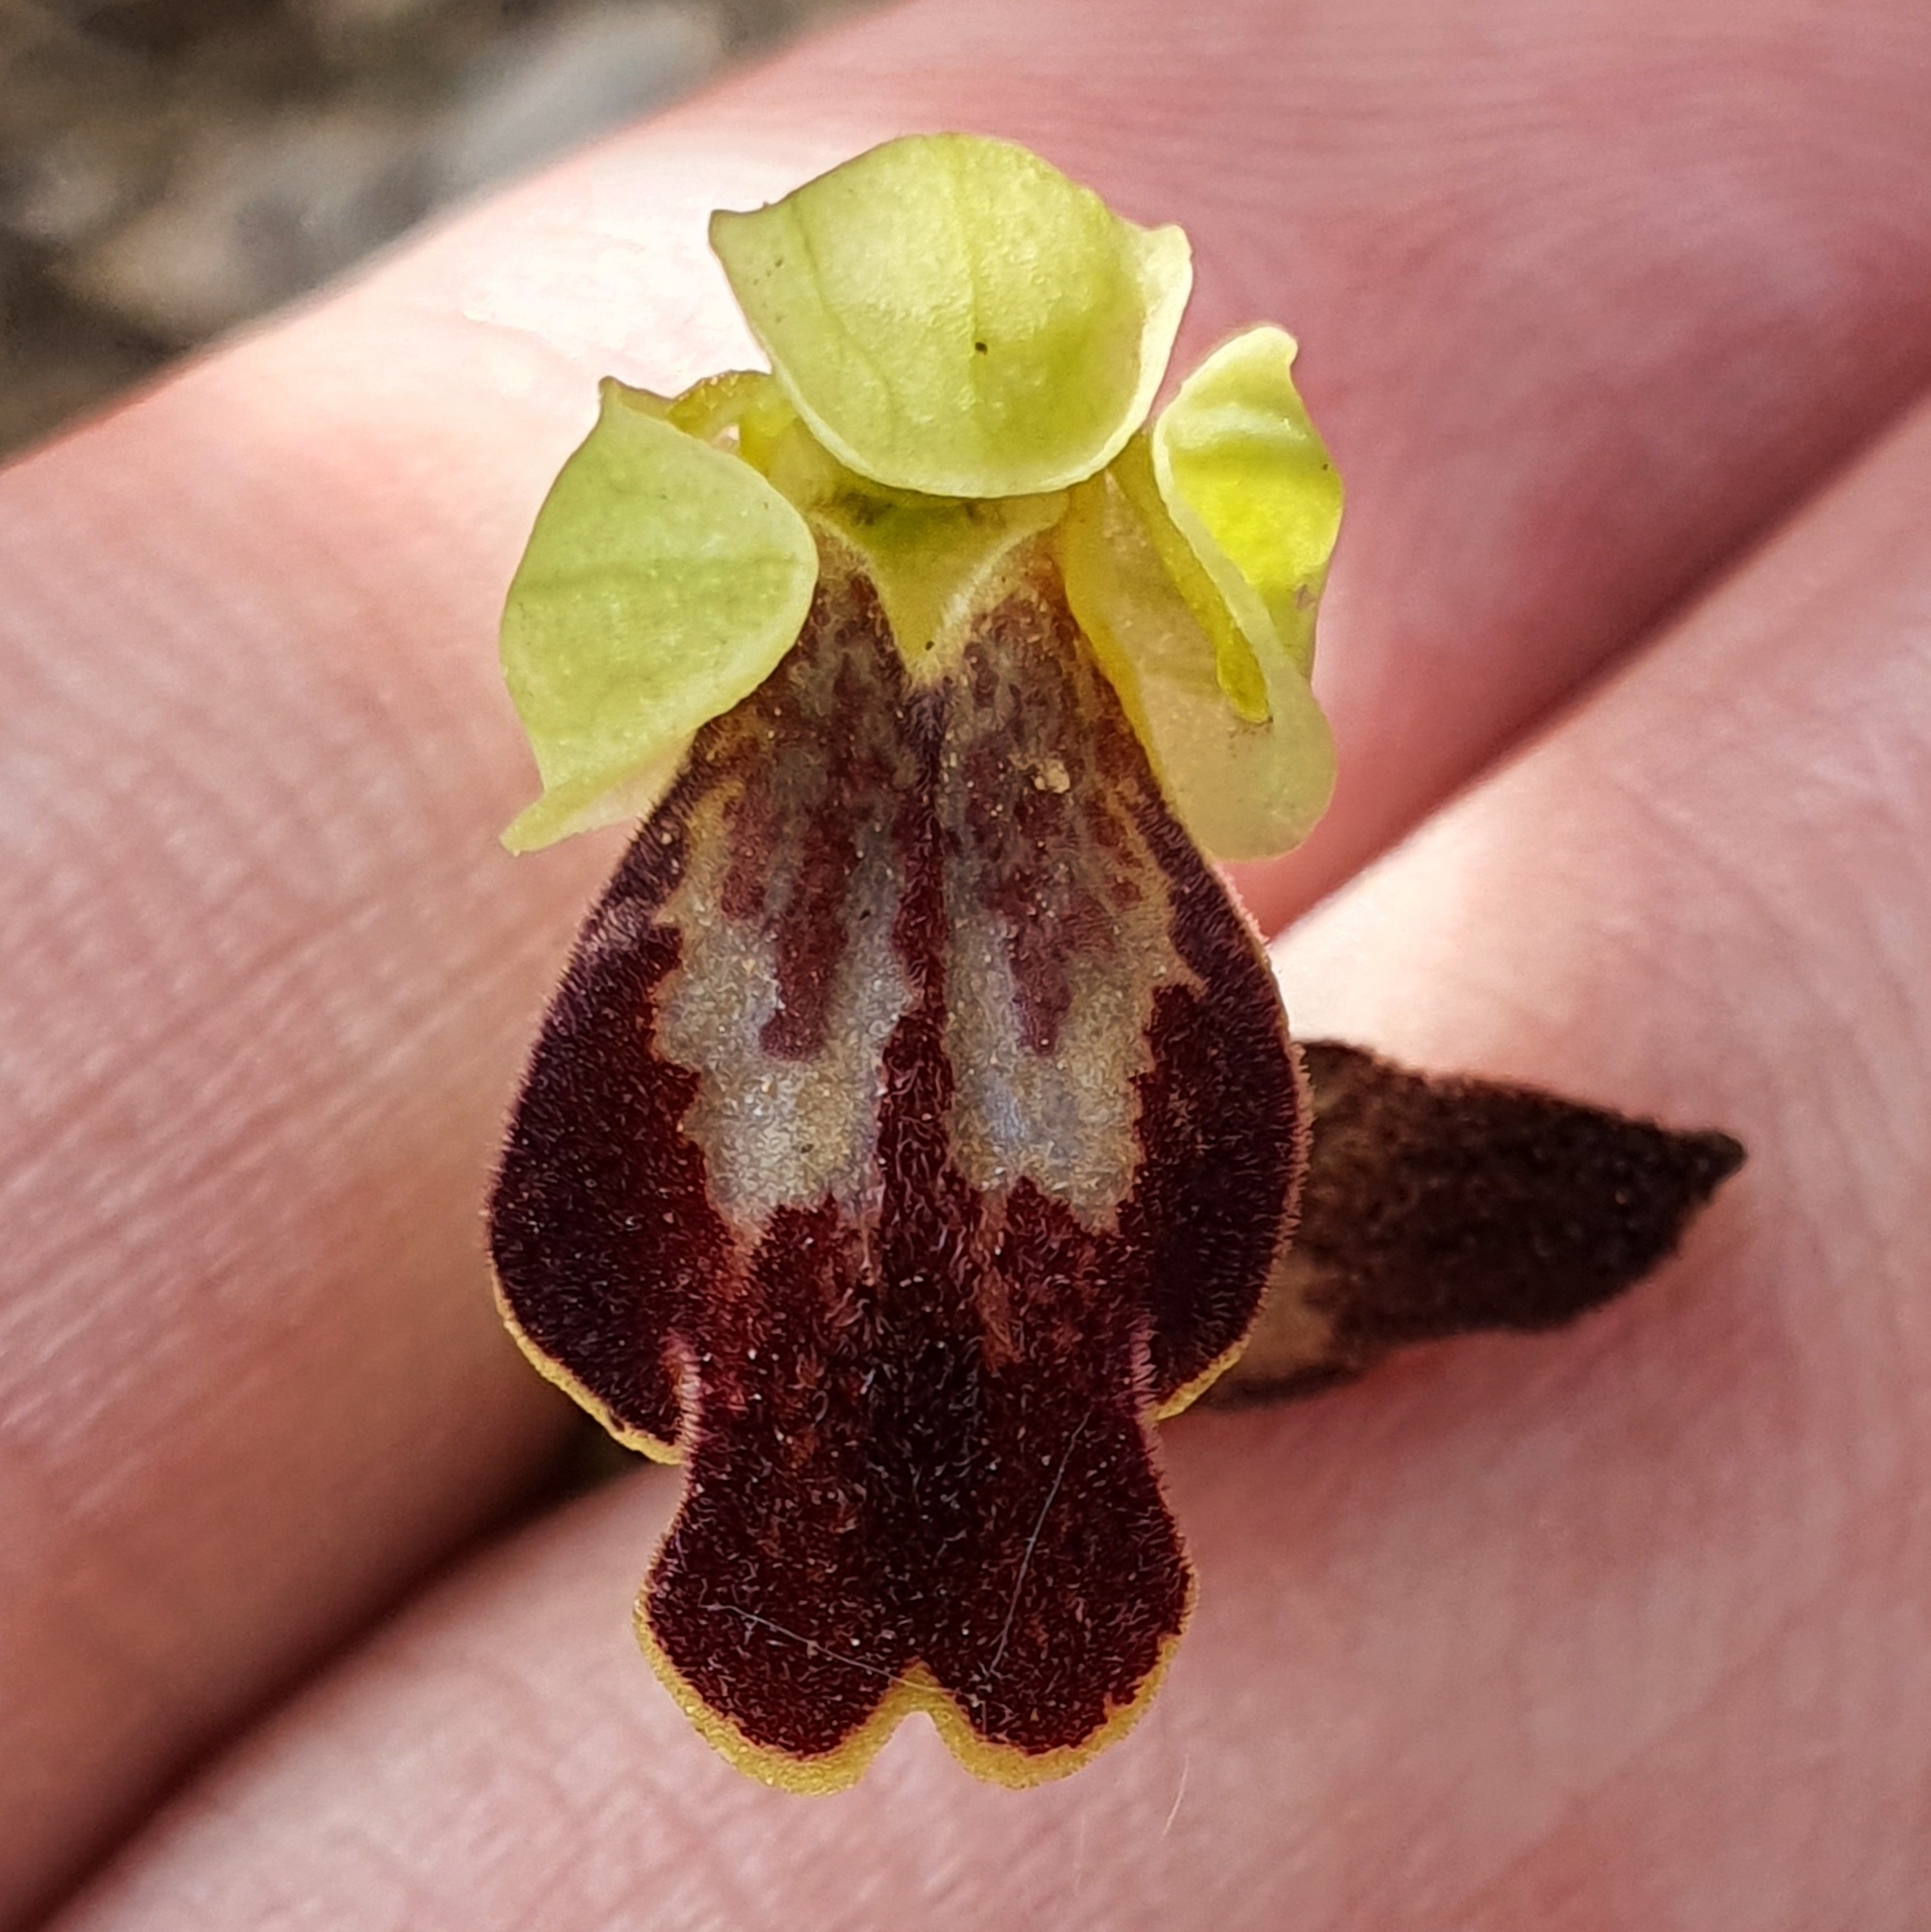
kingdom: Plantae
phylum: Tracheophyta
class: Liliopsida
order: Asparagales
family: Orchidaceae
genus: Ophrys
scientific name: Ophrys fusca
